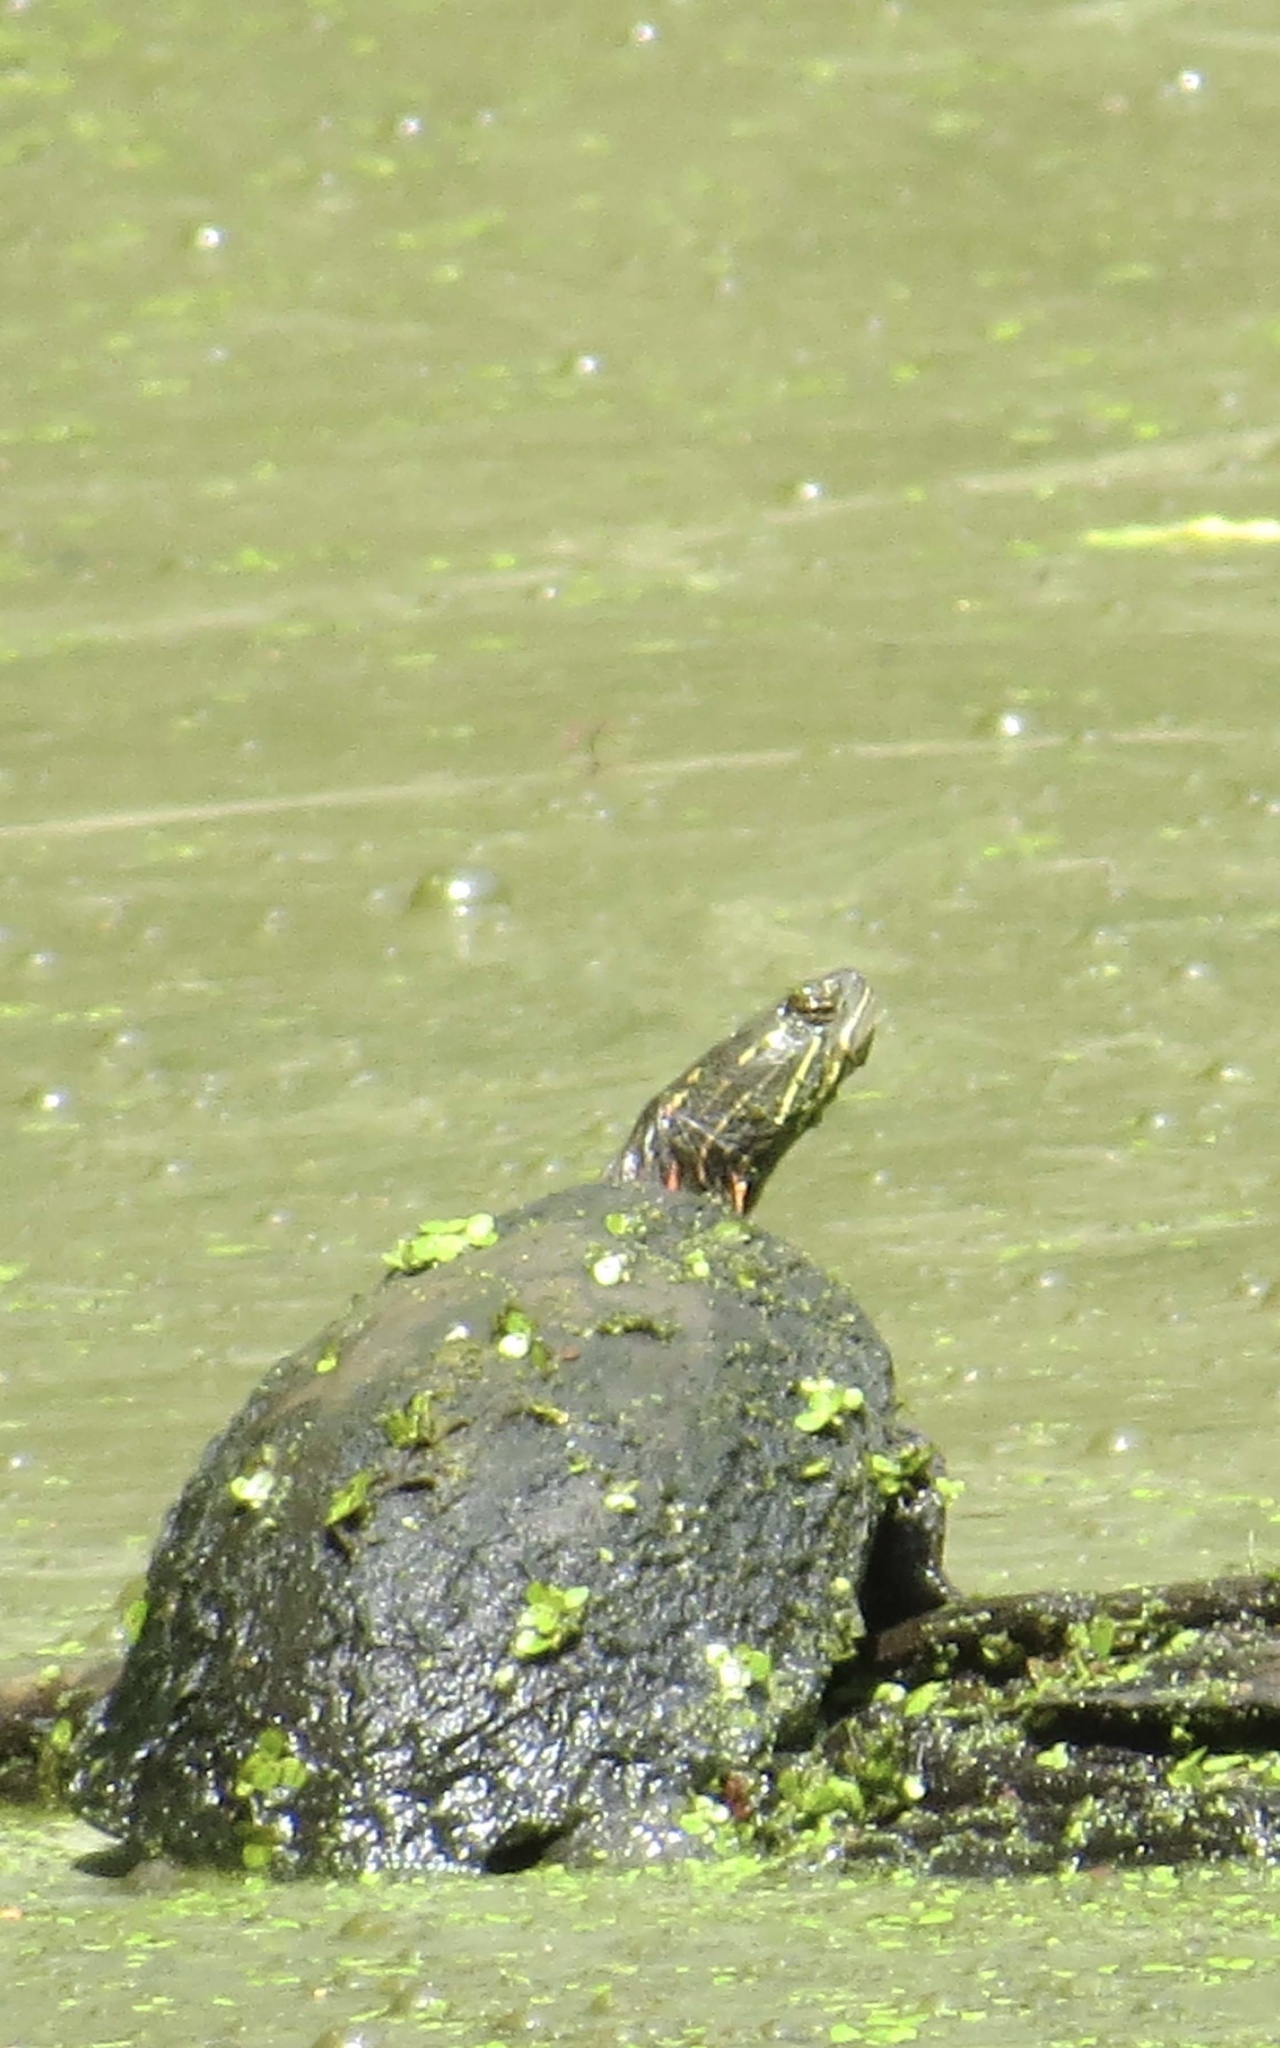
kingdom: Animalia
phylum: Chordata
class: Testudines
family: Emydidae
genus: Chrysemys
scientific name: Chrysemys picta
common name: Painted turtle
